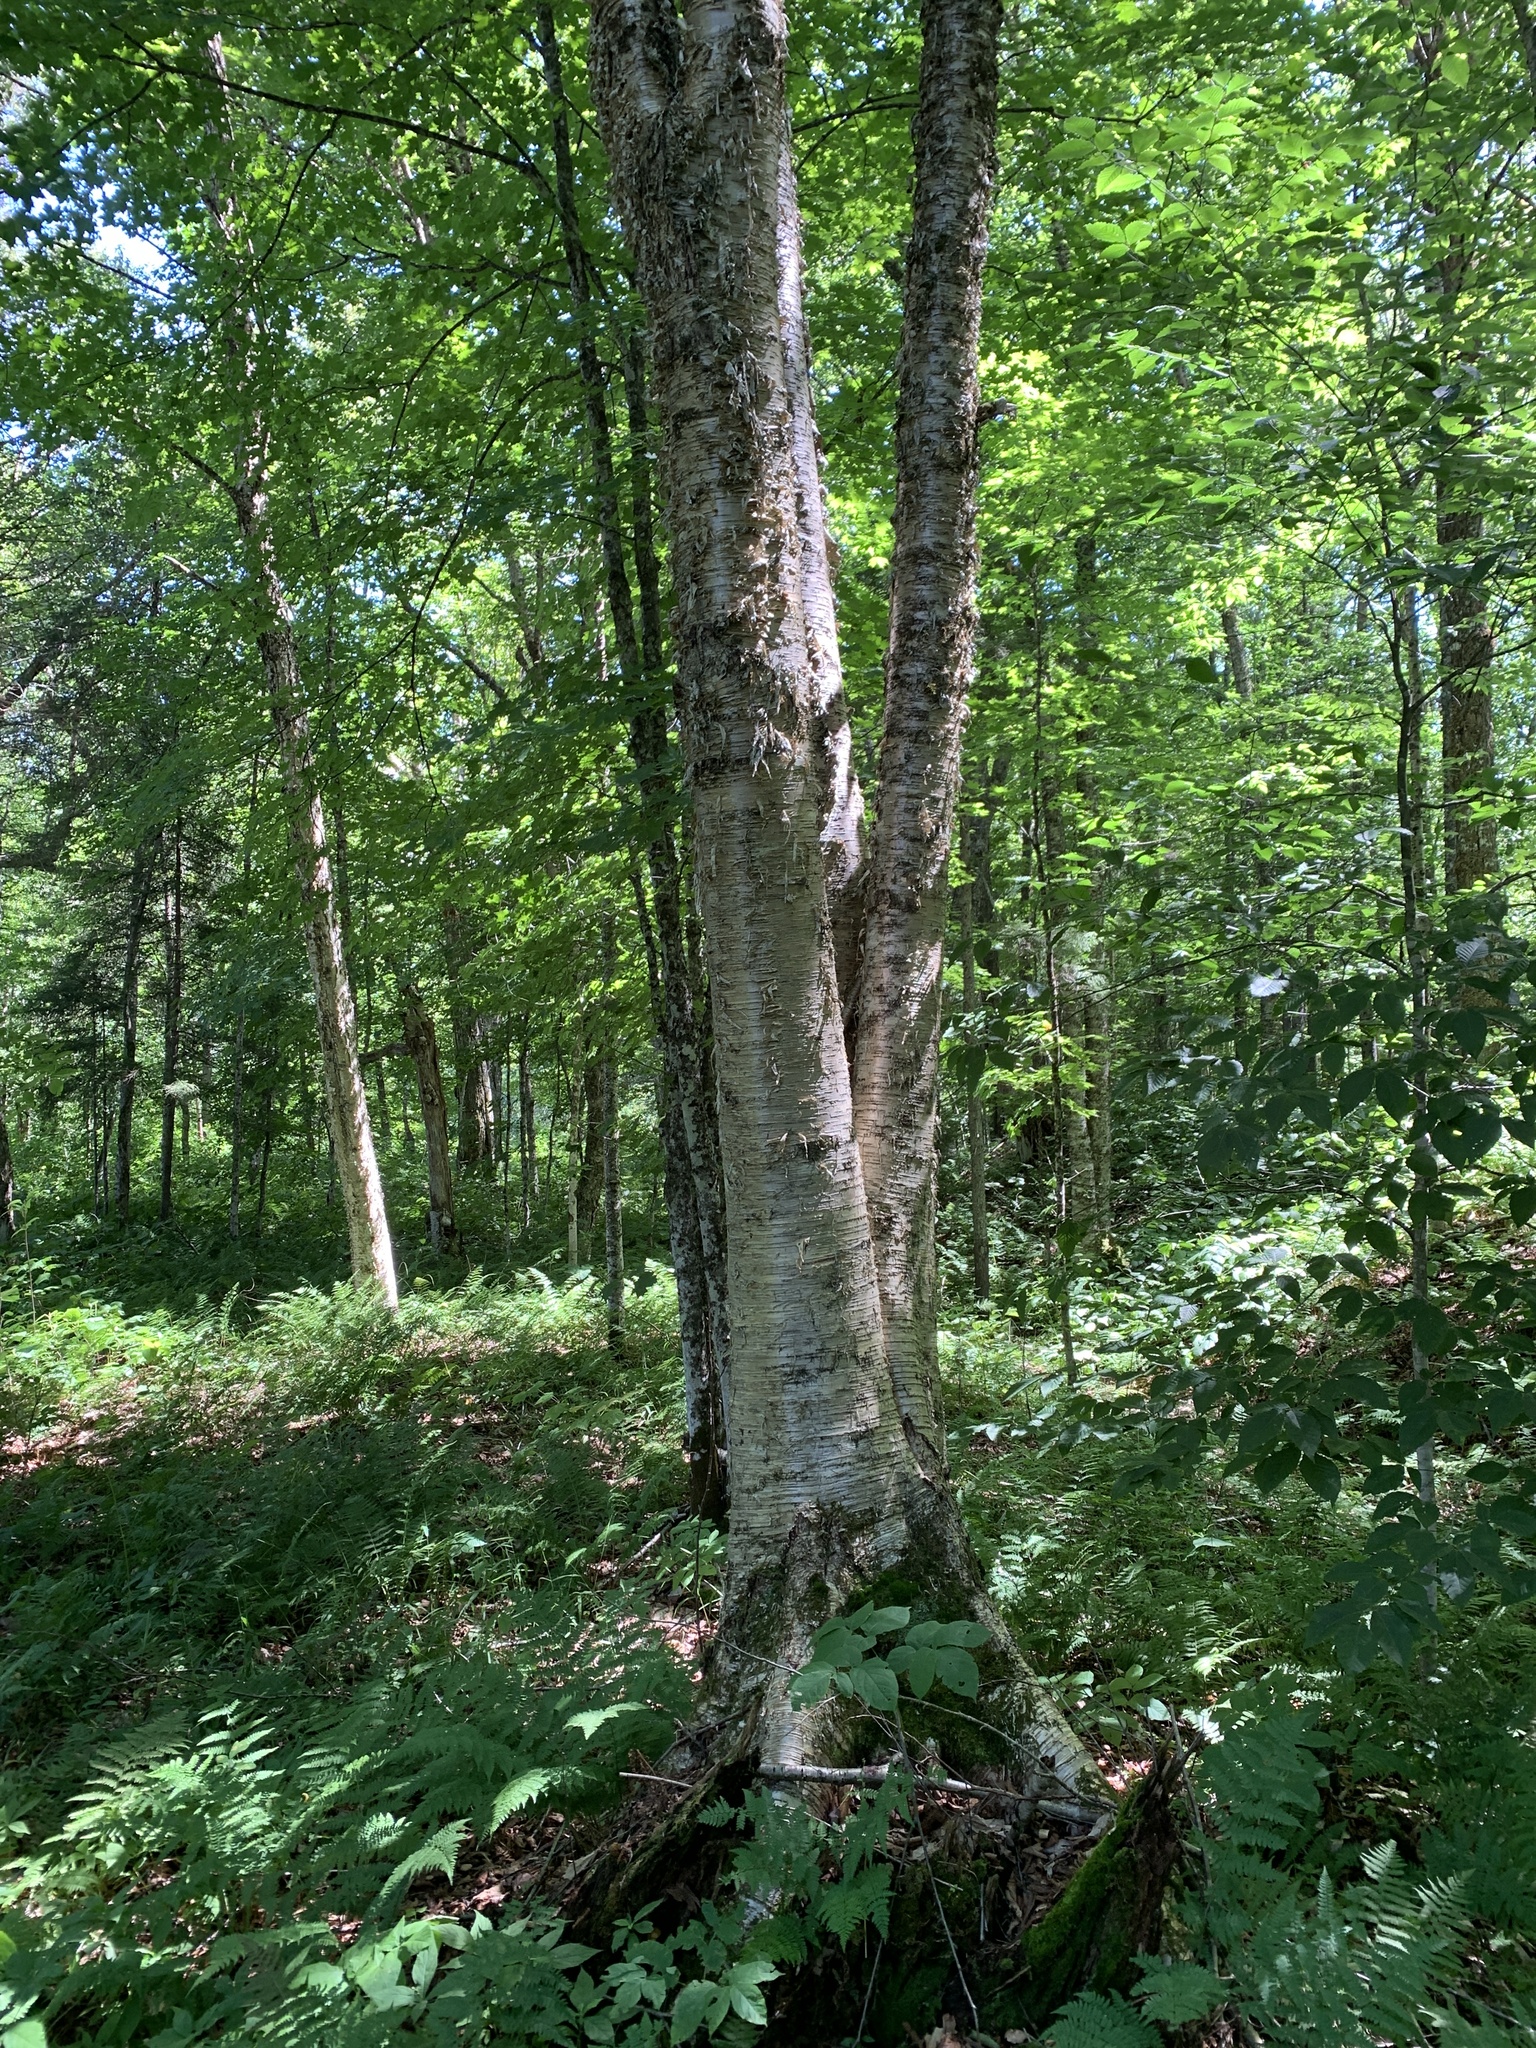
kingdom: Plantae
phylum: Tracheophyta
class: Magnoliopsida
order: Fagales
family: Betulaceae
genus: Betula
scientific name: Betula alleghaniensis
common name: Yellow birch
